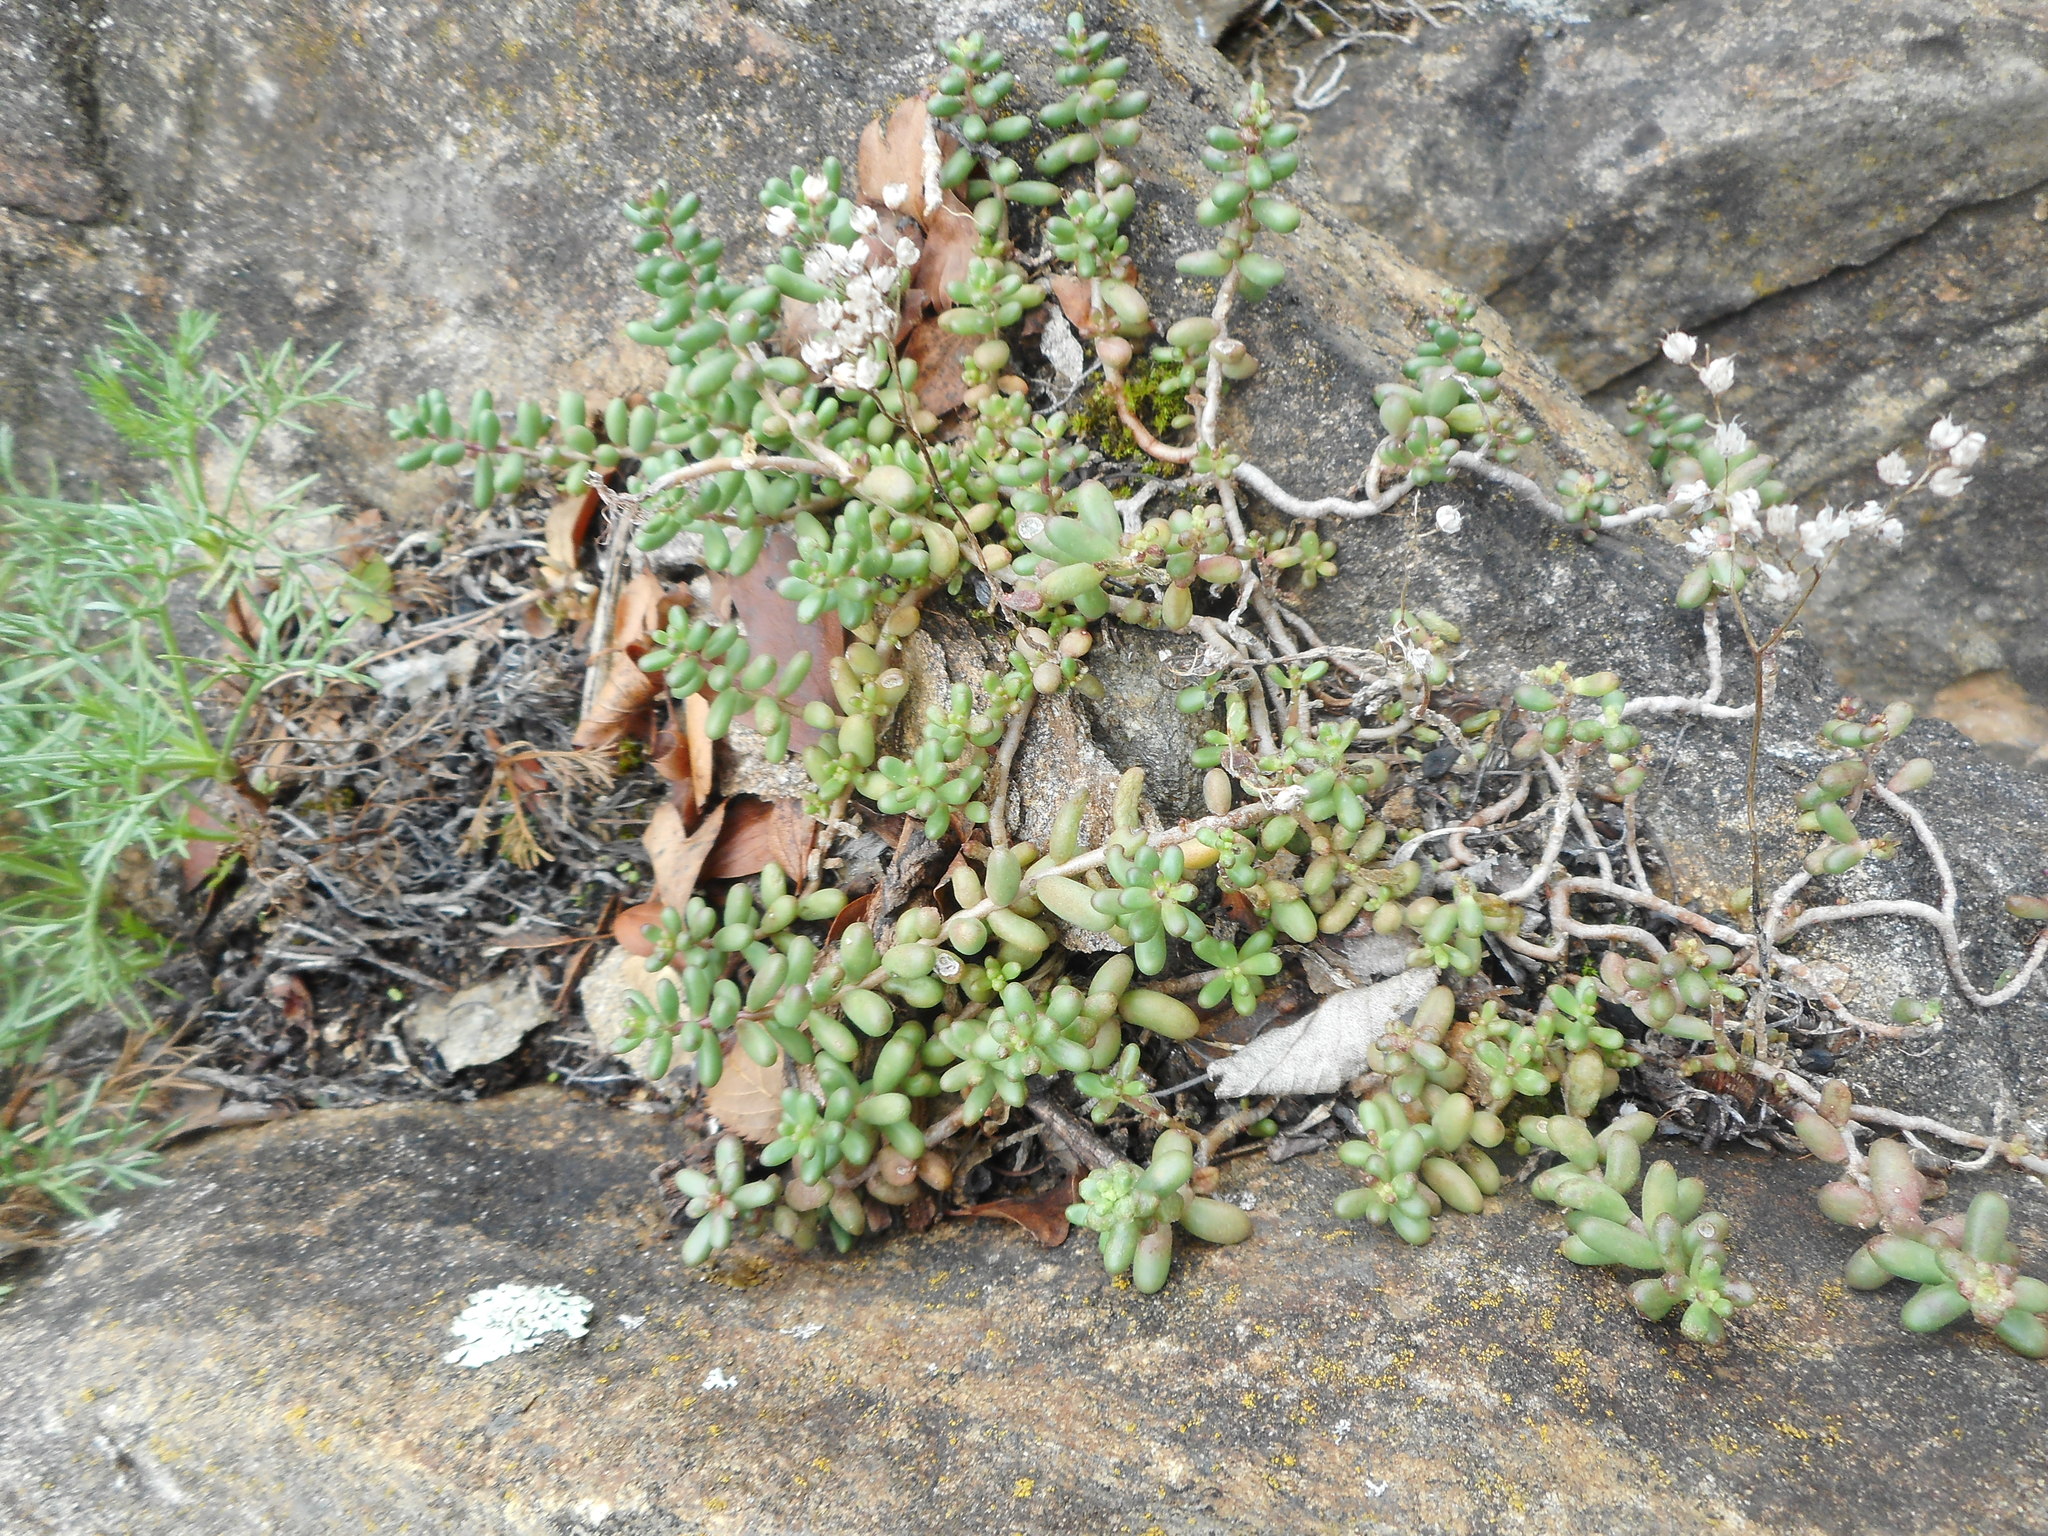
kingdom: Plantae
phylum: Tracheophyta
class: Magnoliopsida
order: Saxifragales
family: Crassulaceae
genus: Sedum
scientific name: Sedum album
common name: White stonecrop
